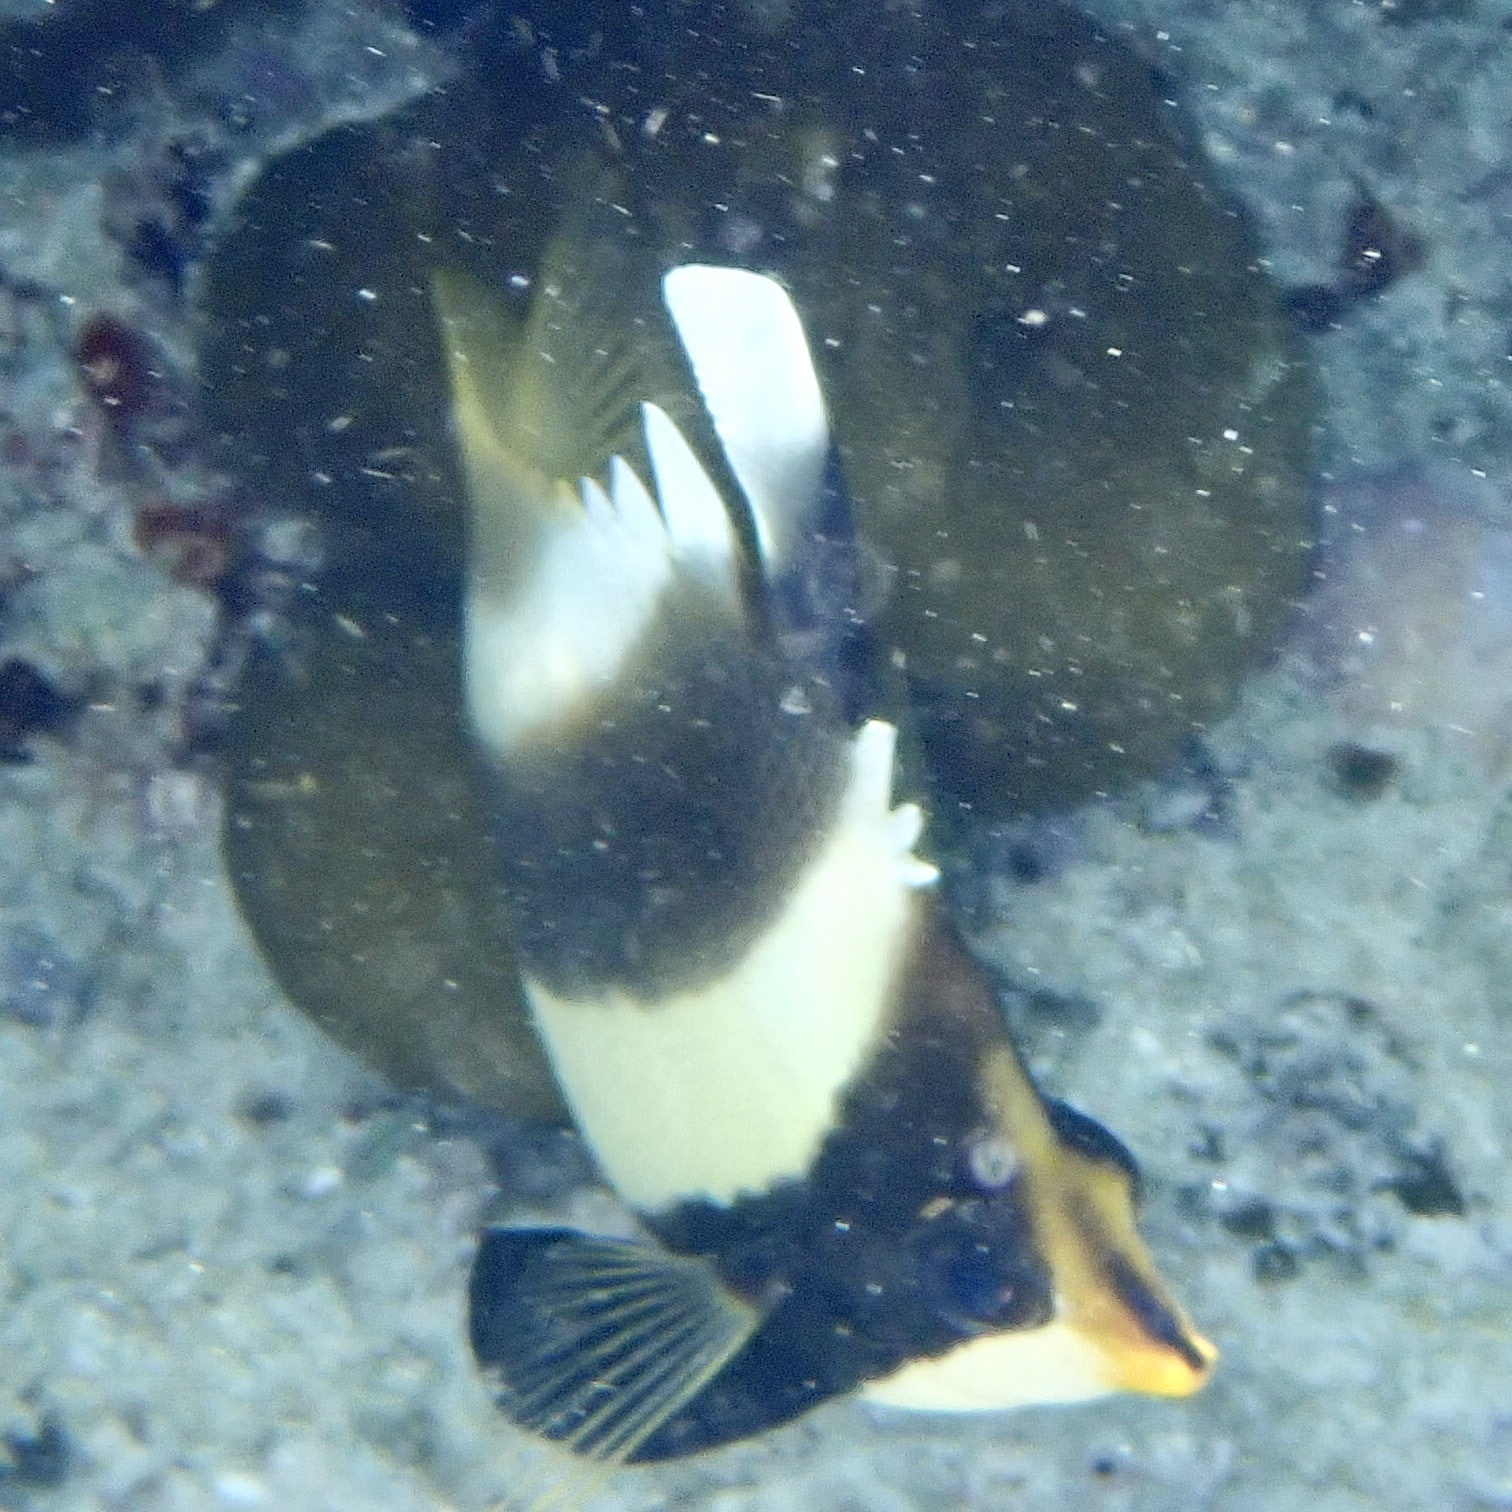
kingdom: Animalia
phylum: Chordata
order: Perciformes
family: Chaetodontidae
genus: Heniochus
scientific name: Heniochus chrysostomus
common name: Horned bannerfish
